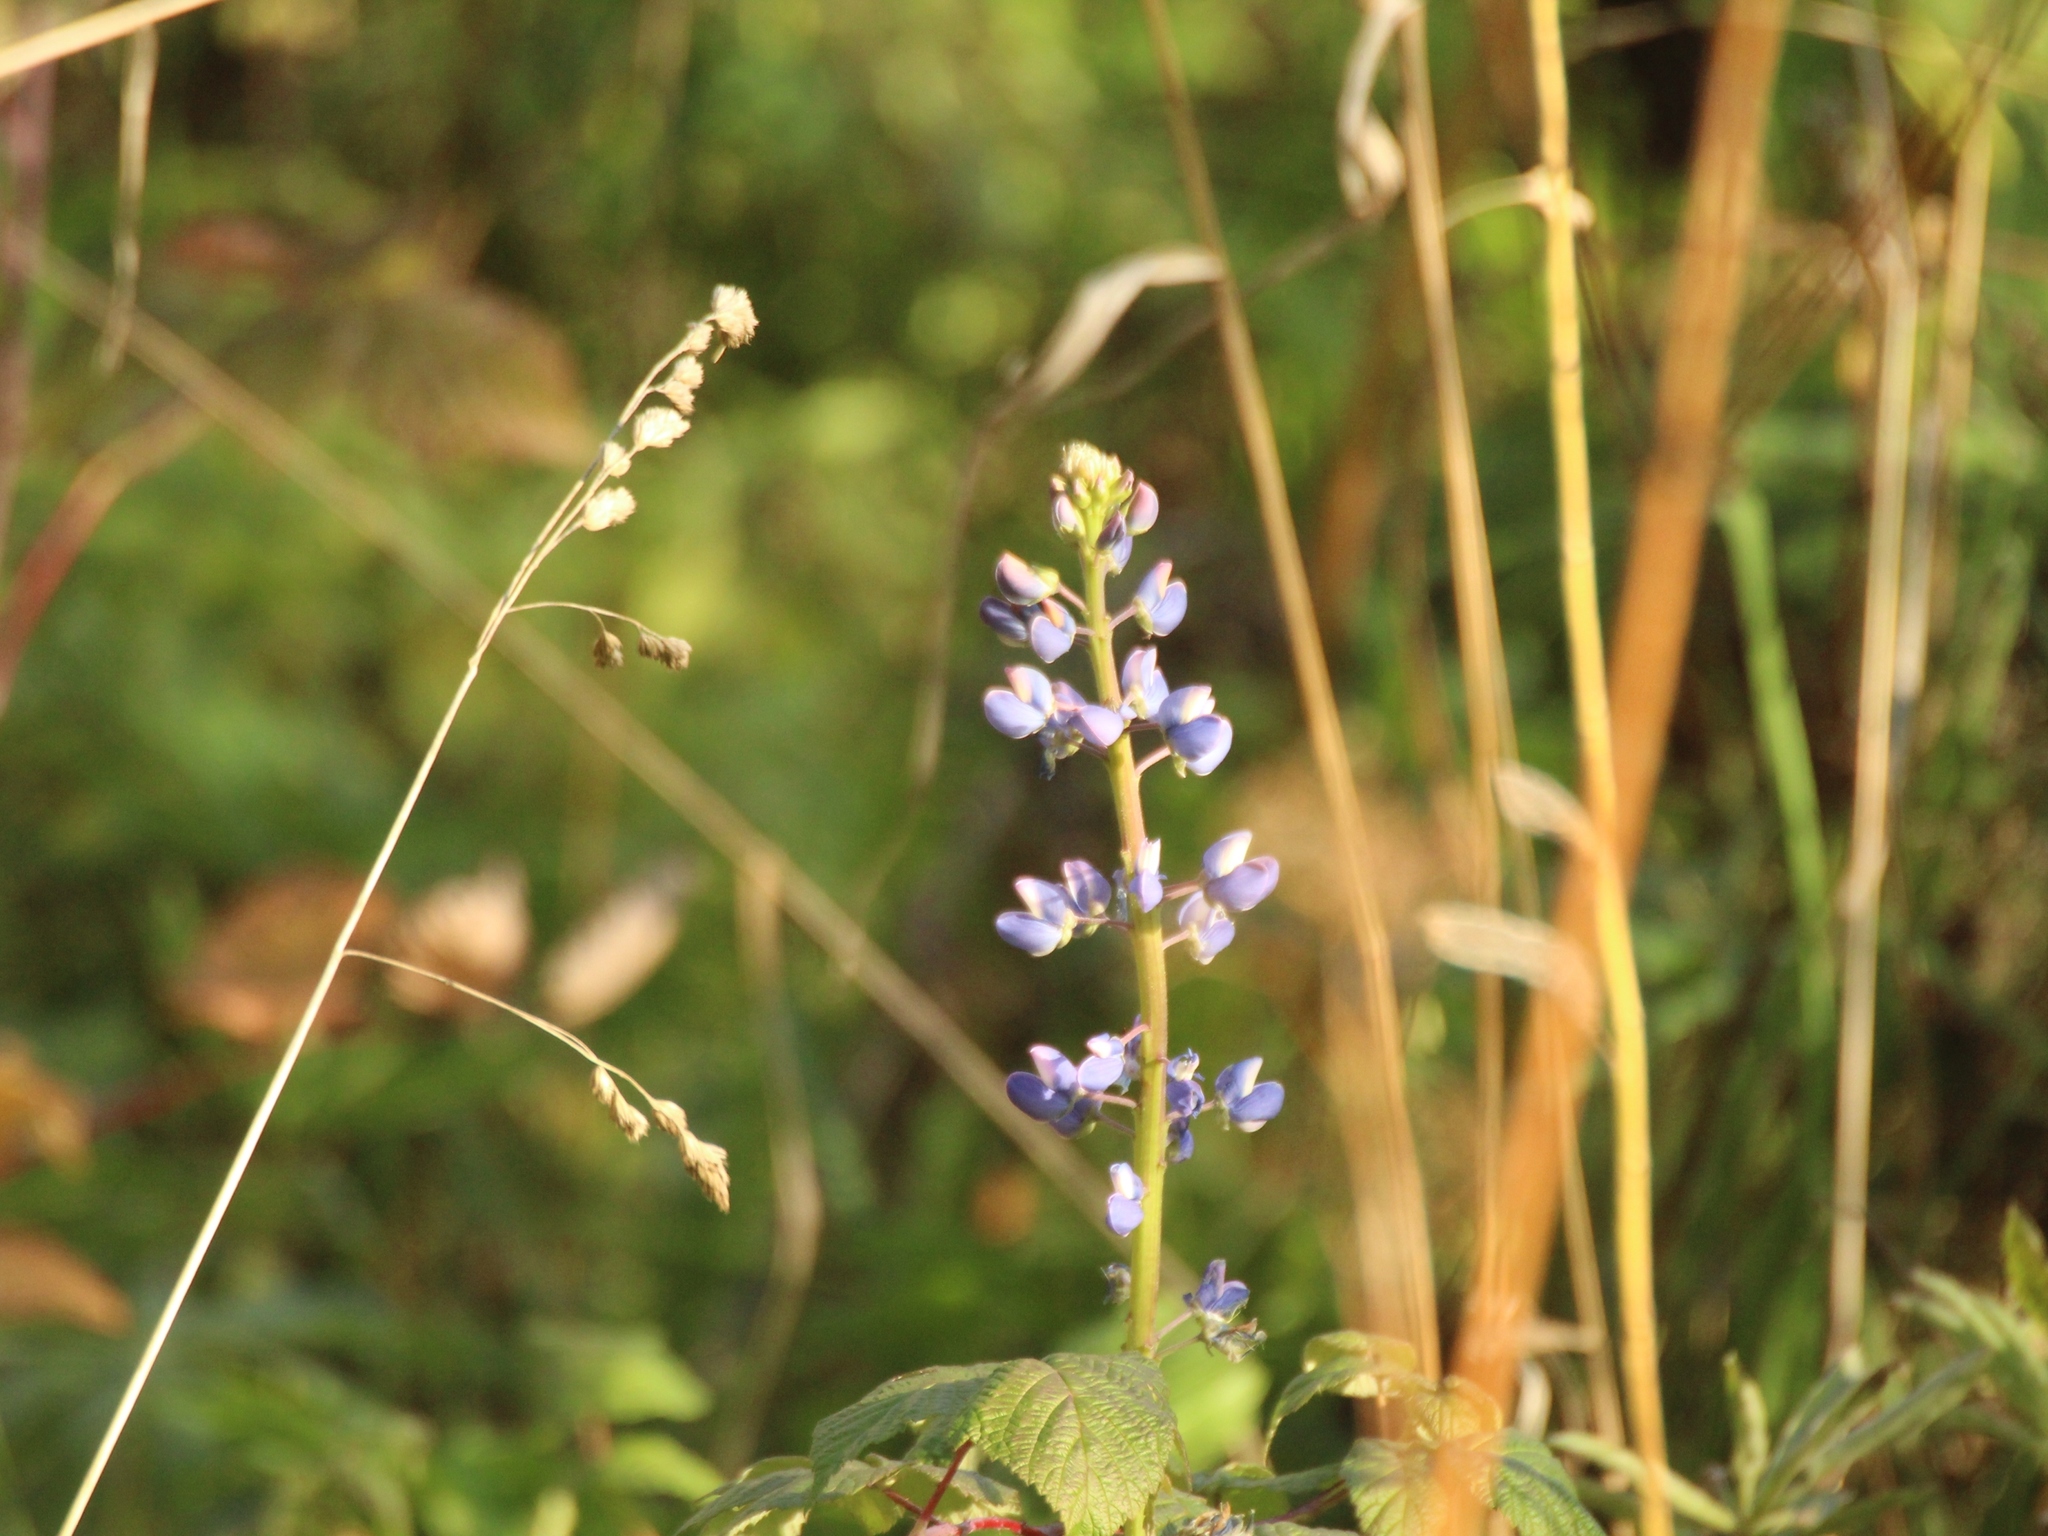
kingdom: Plantae
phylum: Tracheophyta
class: Magnoliopsida
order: Fabales
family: Fabaceae
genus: Lupinus
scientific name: Lupinus polyphyllus
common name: Garden lupin
